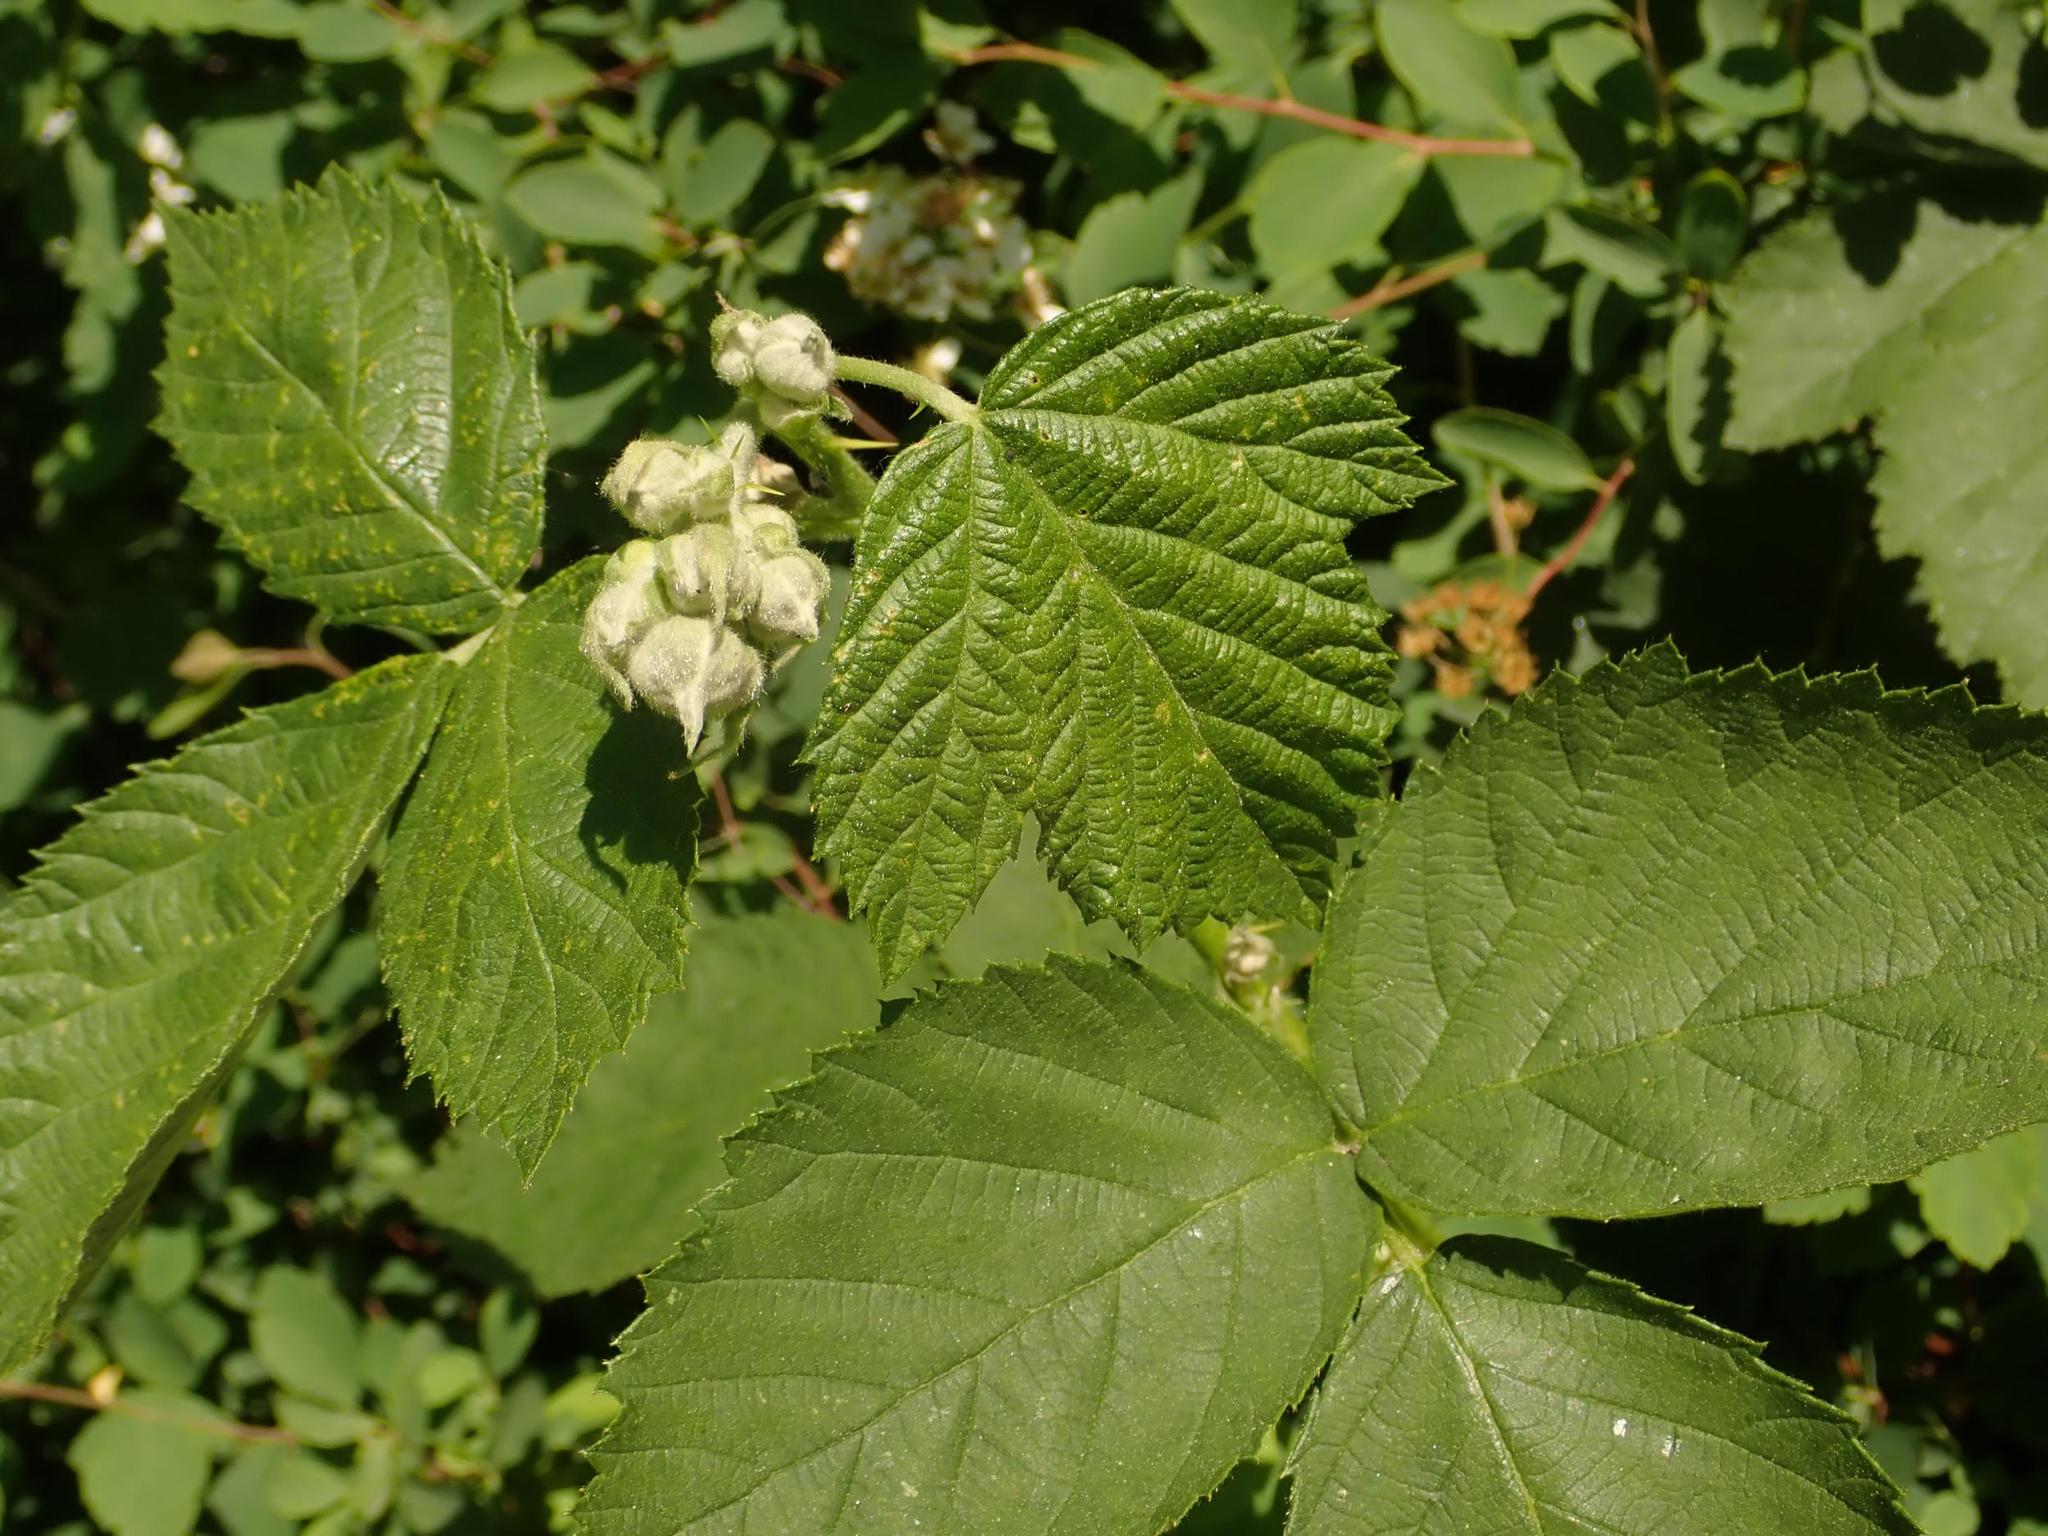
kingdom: Plantae
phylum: Tracheophyta
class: Magnoliopsida
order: Rosales
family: Rosaceae
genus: Rubus
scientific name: Rubus caesius
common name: Dewberry
